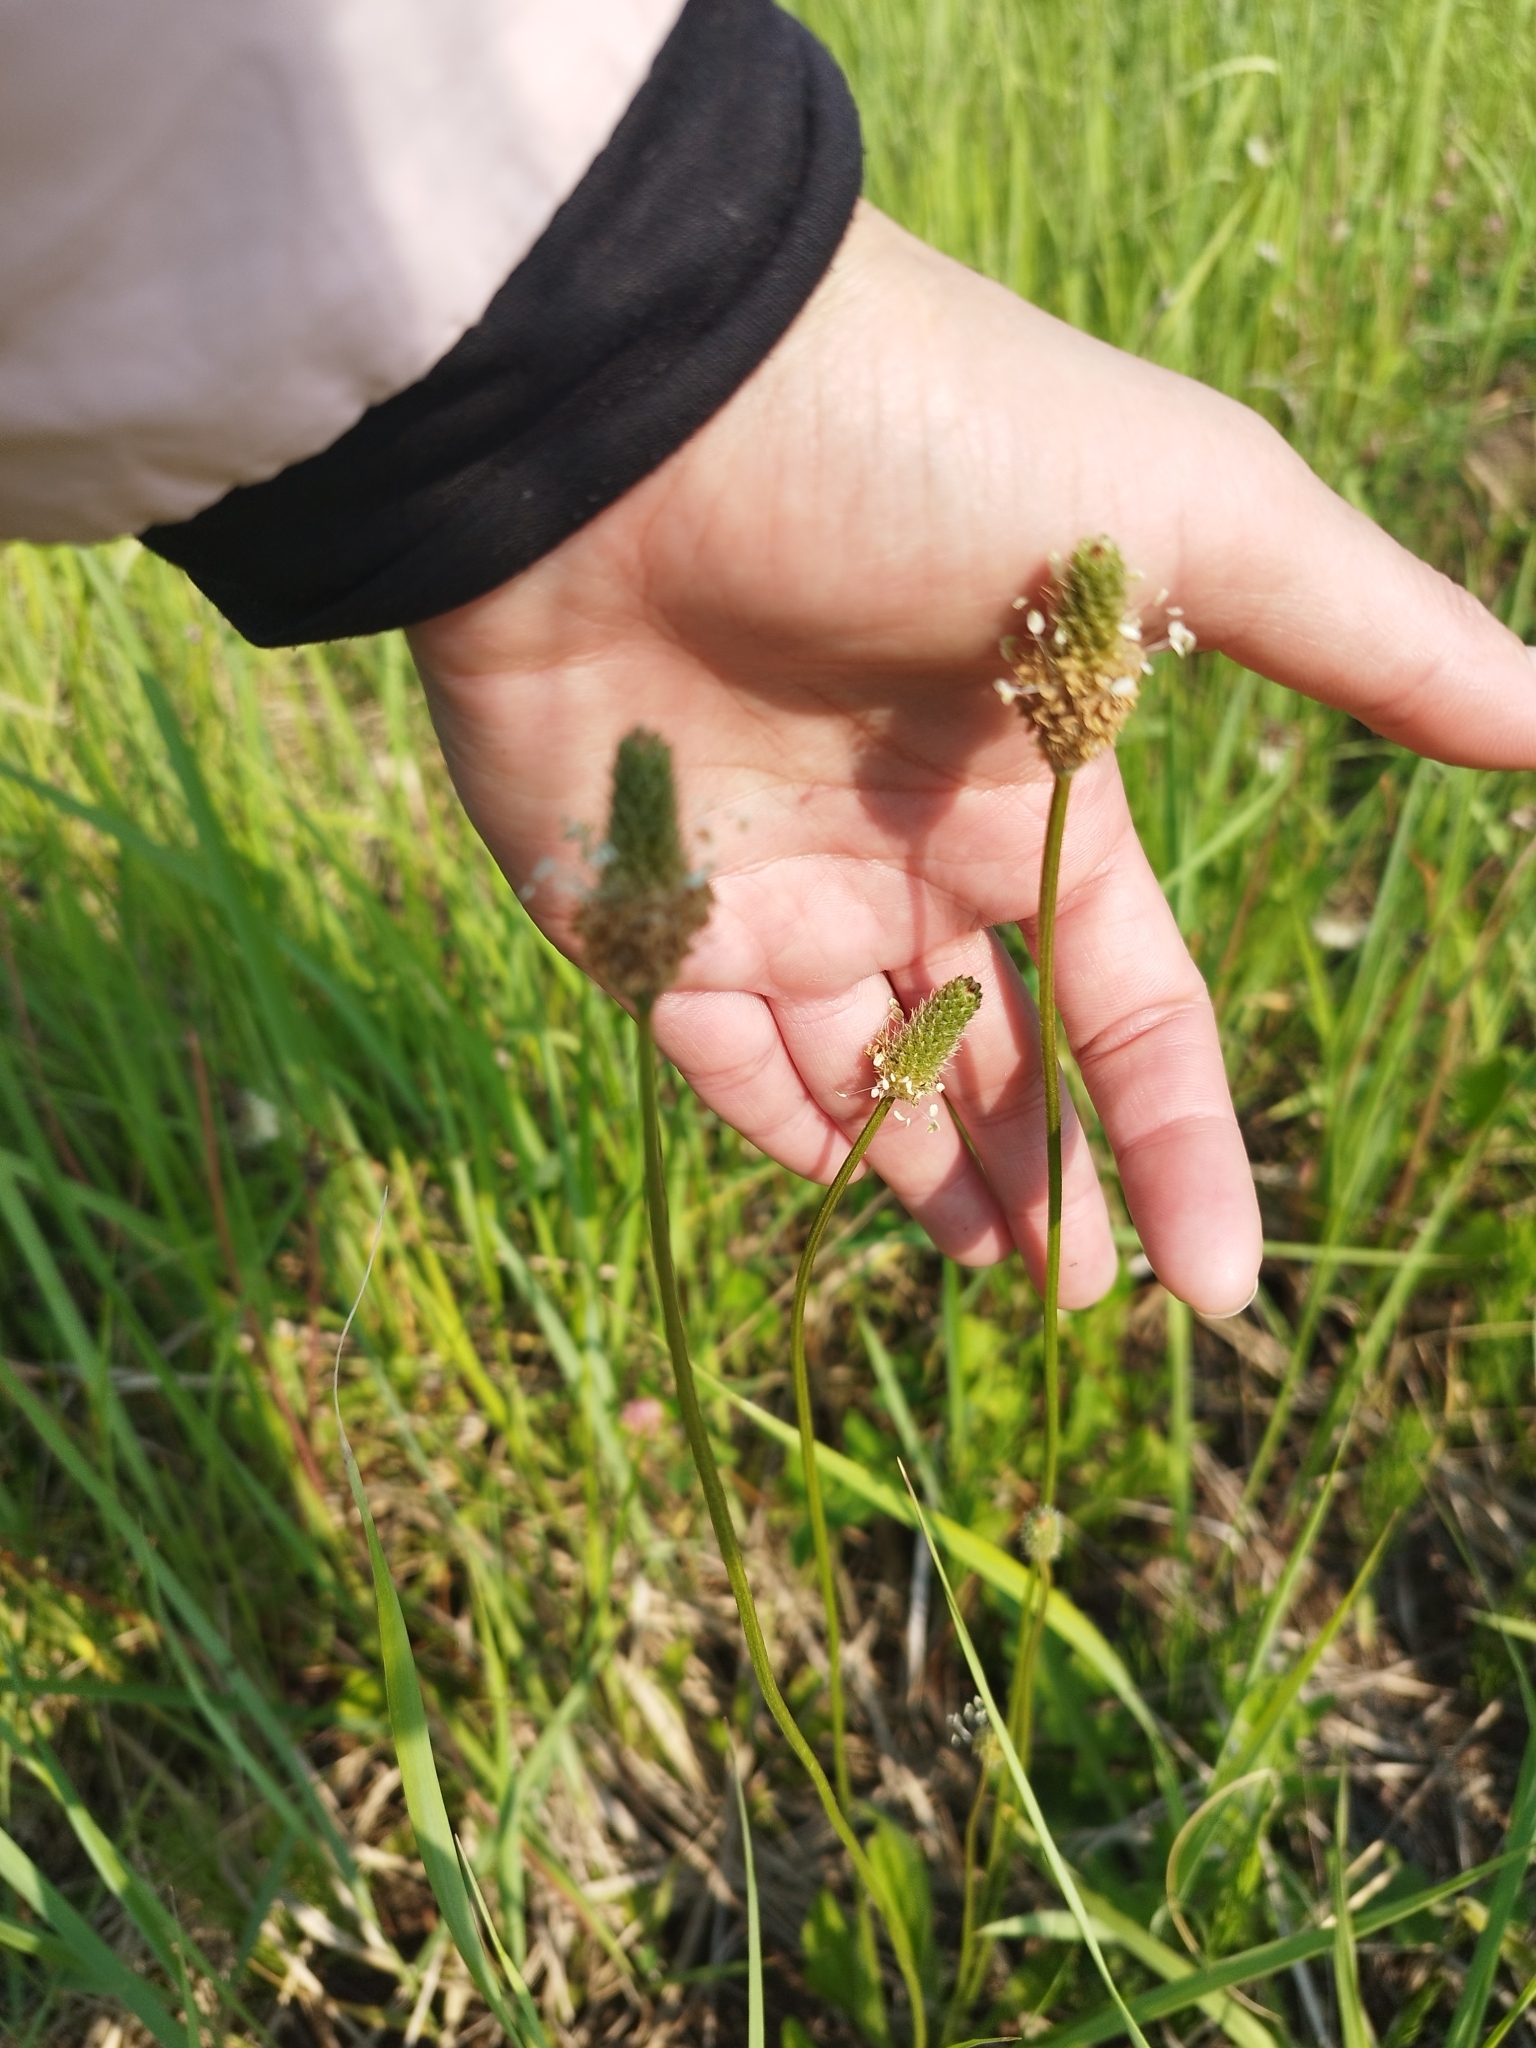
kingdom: Plantae
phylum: Tracheophyta
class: Magnoliopsida
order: Lamiales
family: Plantaginaceae
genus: Plantago
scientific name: Plantago lanceolata
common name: Ribwort plantain
